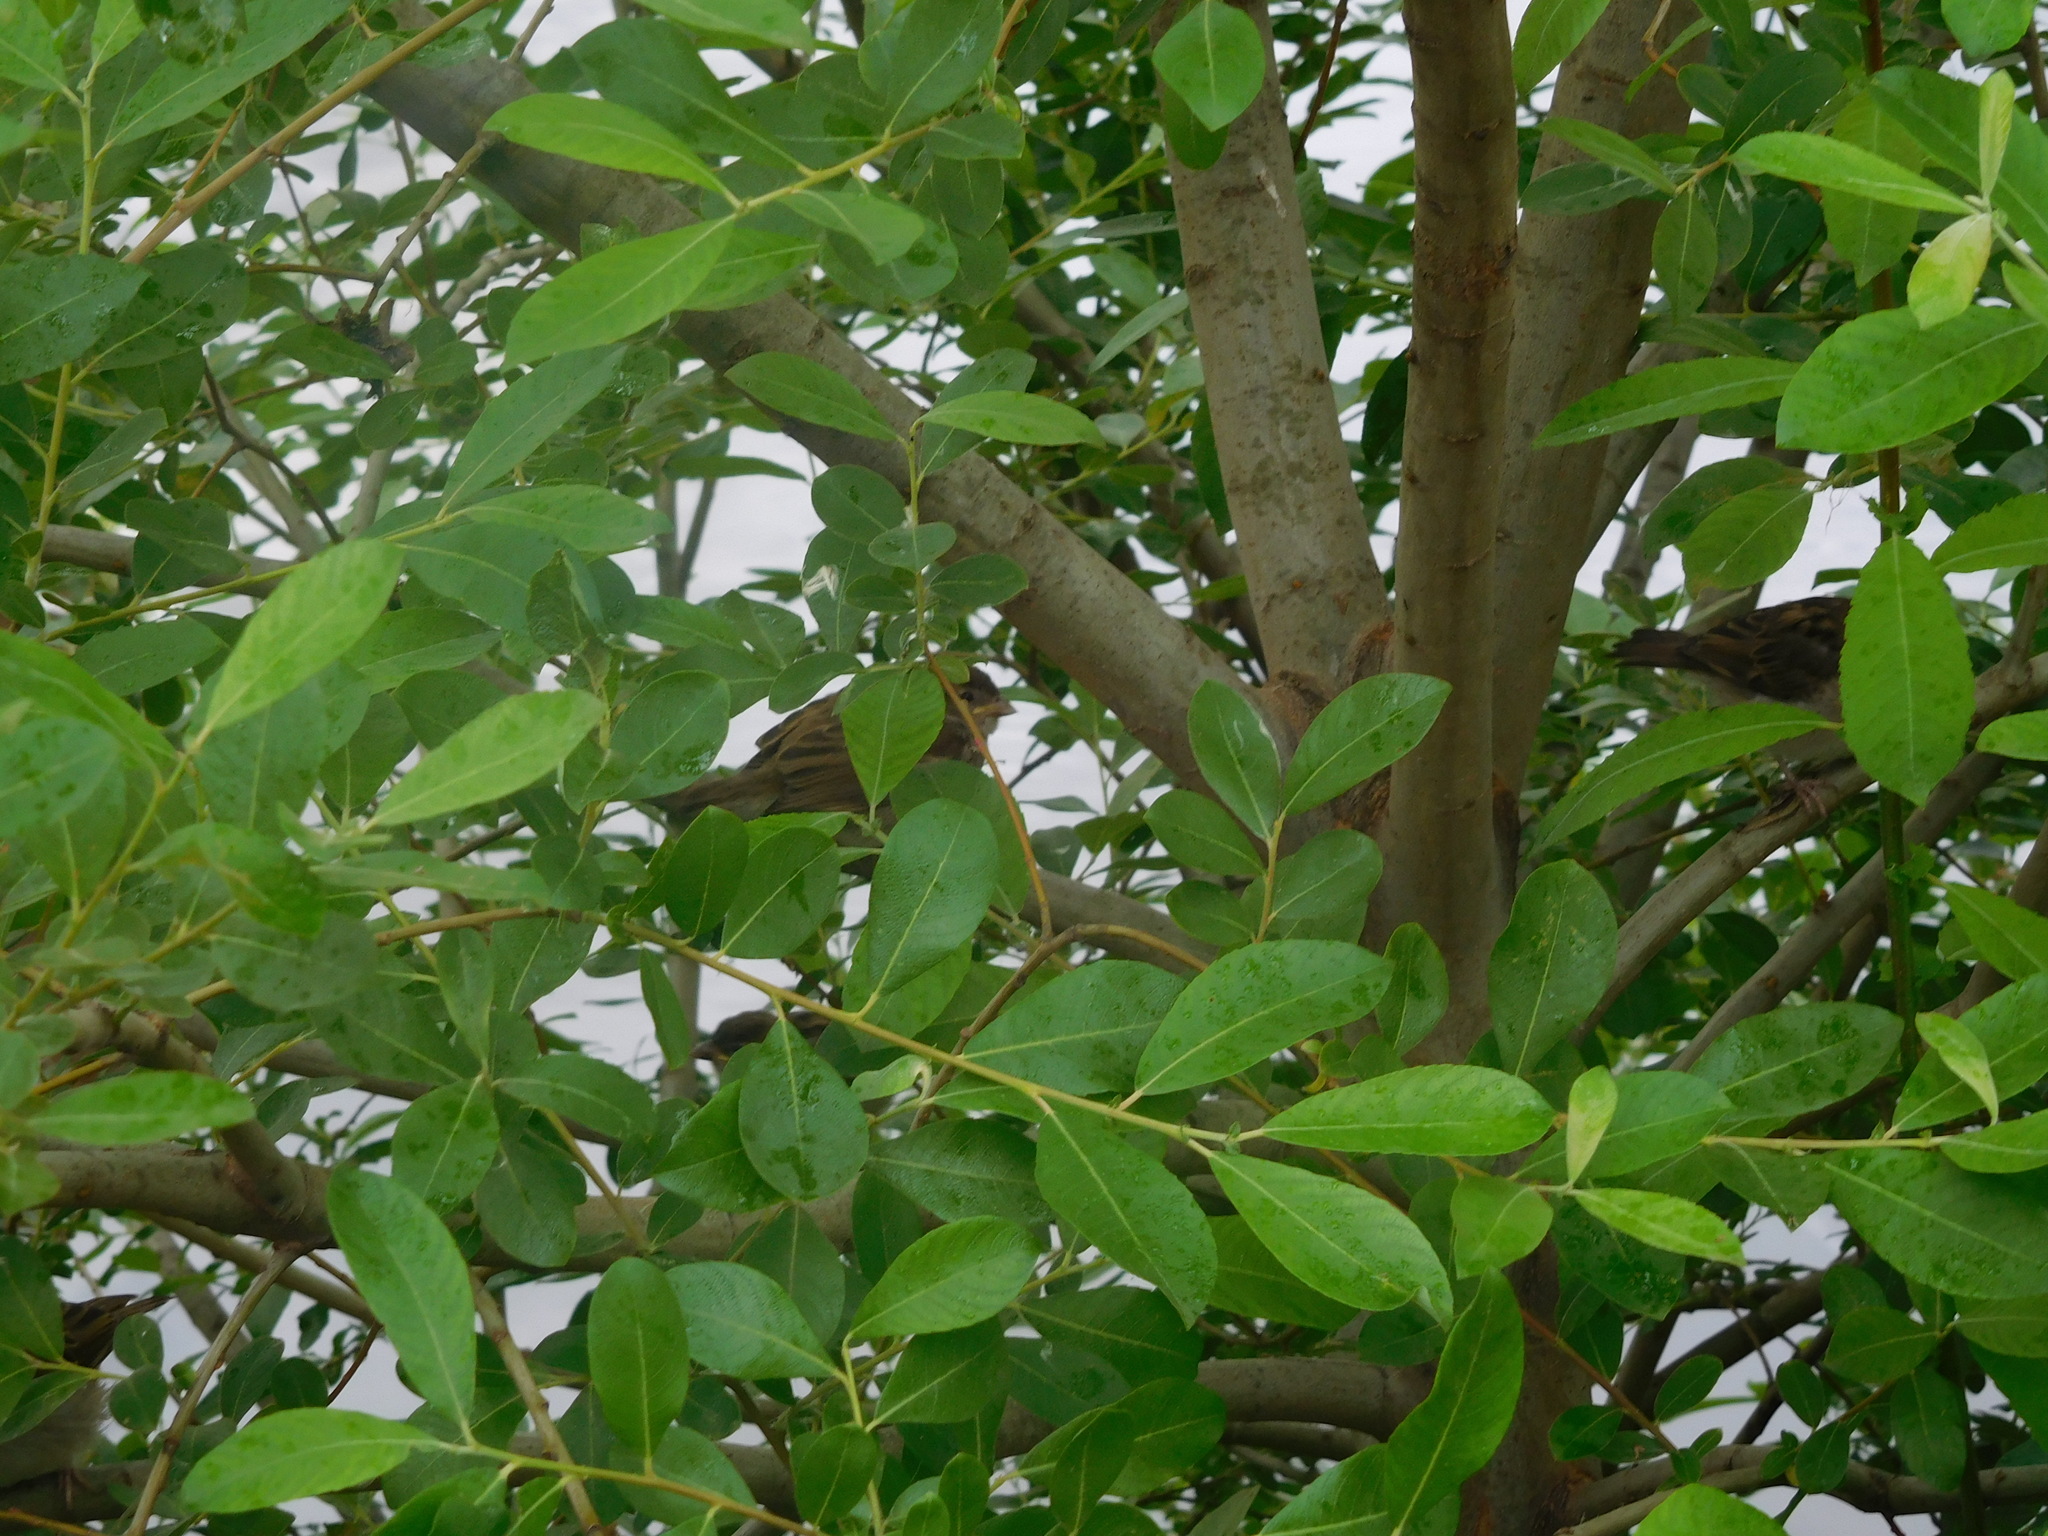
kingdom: Animalia
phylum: Chordata
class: Aves
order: Passeriformes
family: Passeridae
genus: Passer
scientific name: Passer domesticus
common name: House sparrow
